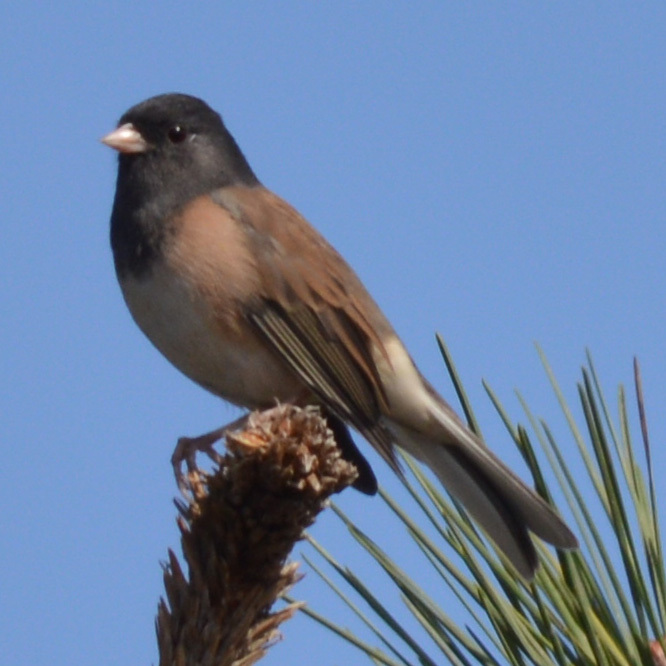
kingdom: Animalia
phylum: Chordata
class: Aves
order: Passeriformes
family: Passerellidae
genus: Junco
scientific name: Junco hyemalis
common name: Dark-eyed junco
